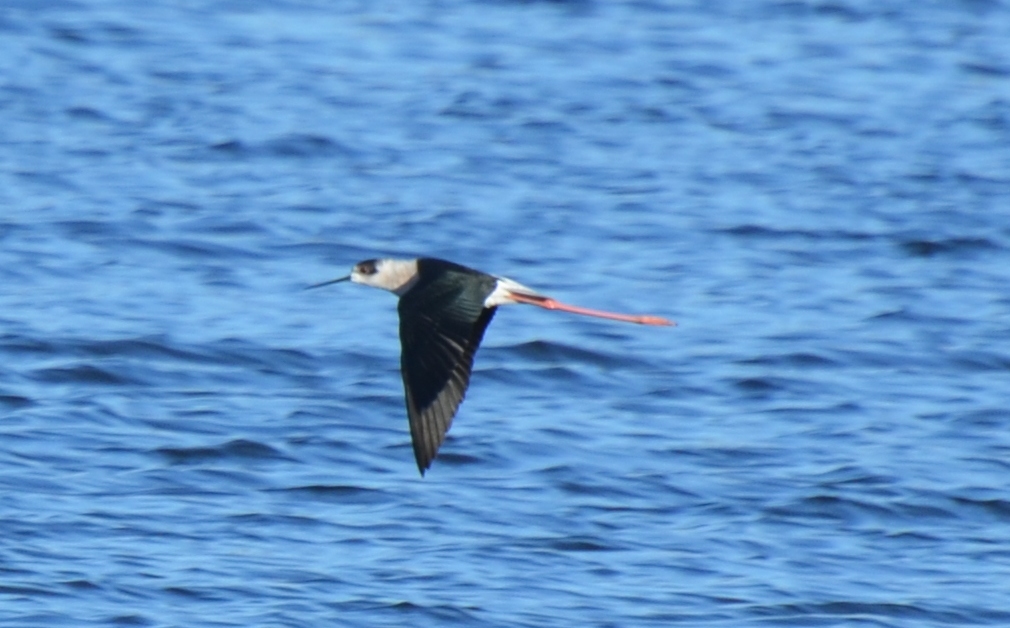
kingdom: Animalia
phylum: Chordata
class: Aves
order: Charadriiformes
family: Recurvirostridae
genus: Himantopus
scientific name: Himantopus himantopus
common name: Black-winged stilt
